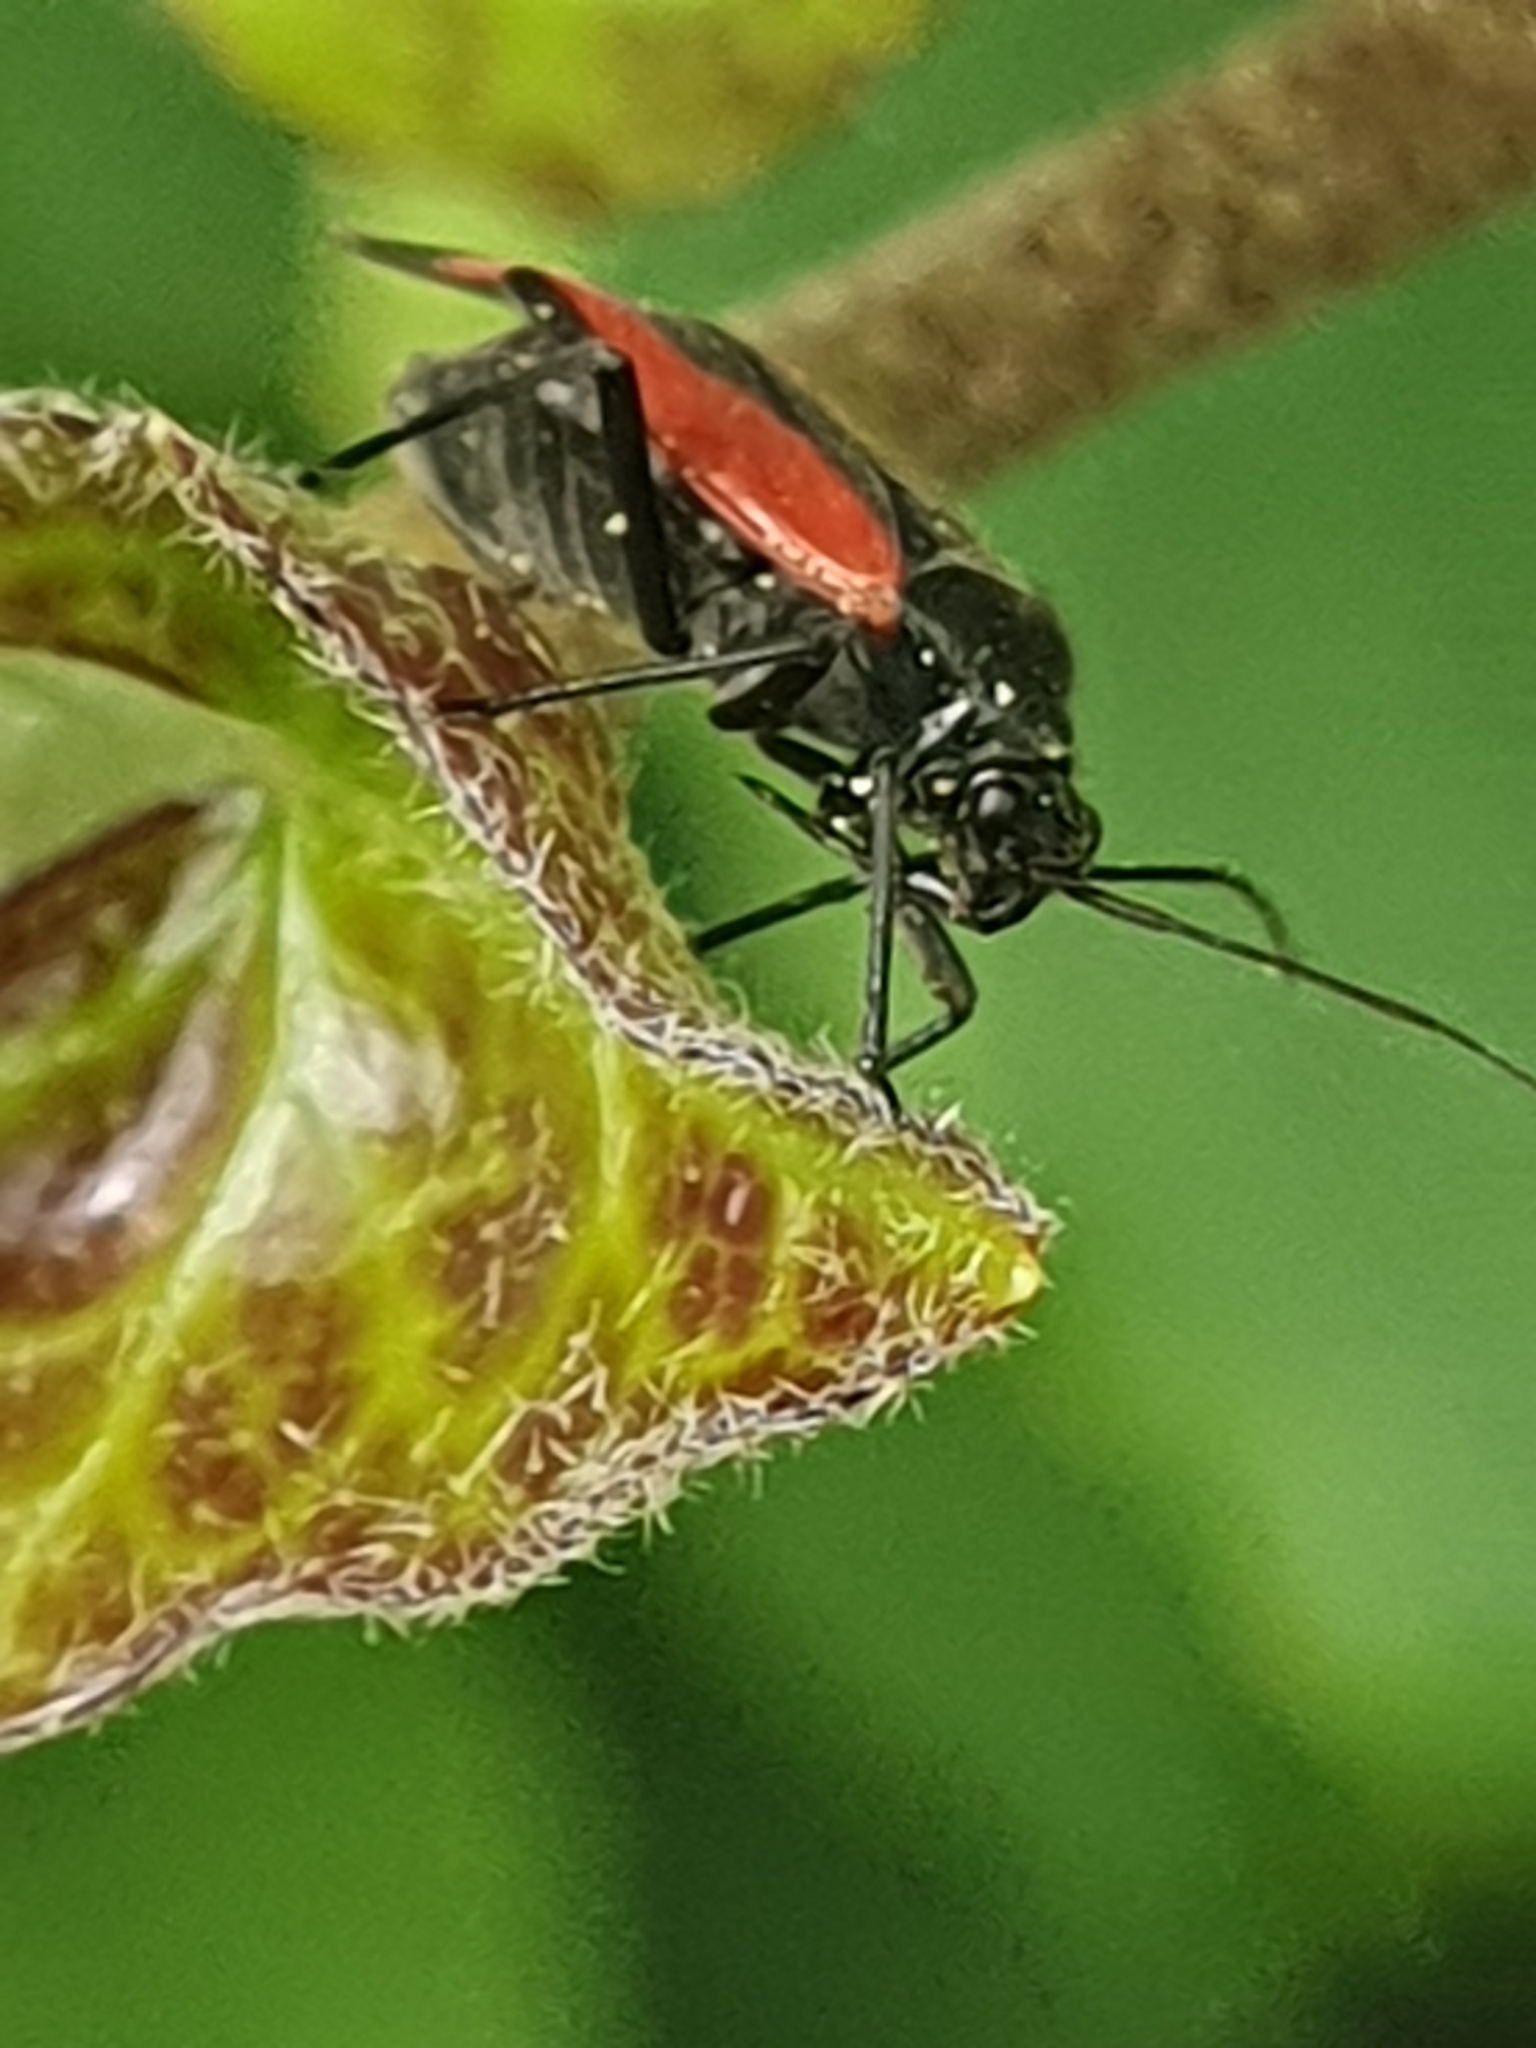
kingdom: Animalia
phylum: Arthropoda
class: Insecta
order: Hemiptera
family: Miridae
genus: Dionconotus
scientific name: Dionconotus confluens
